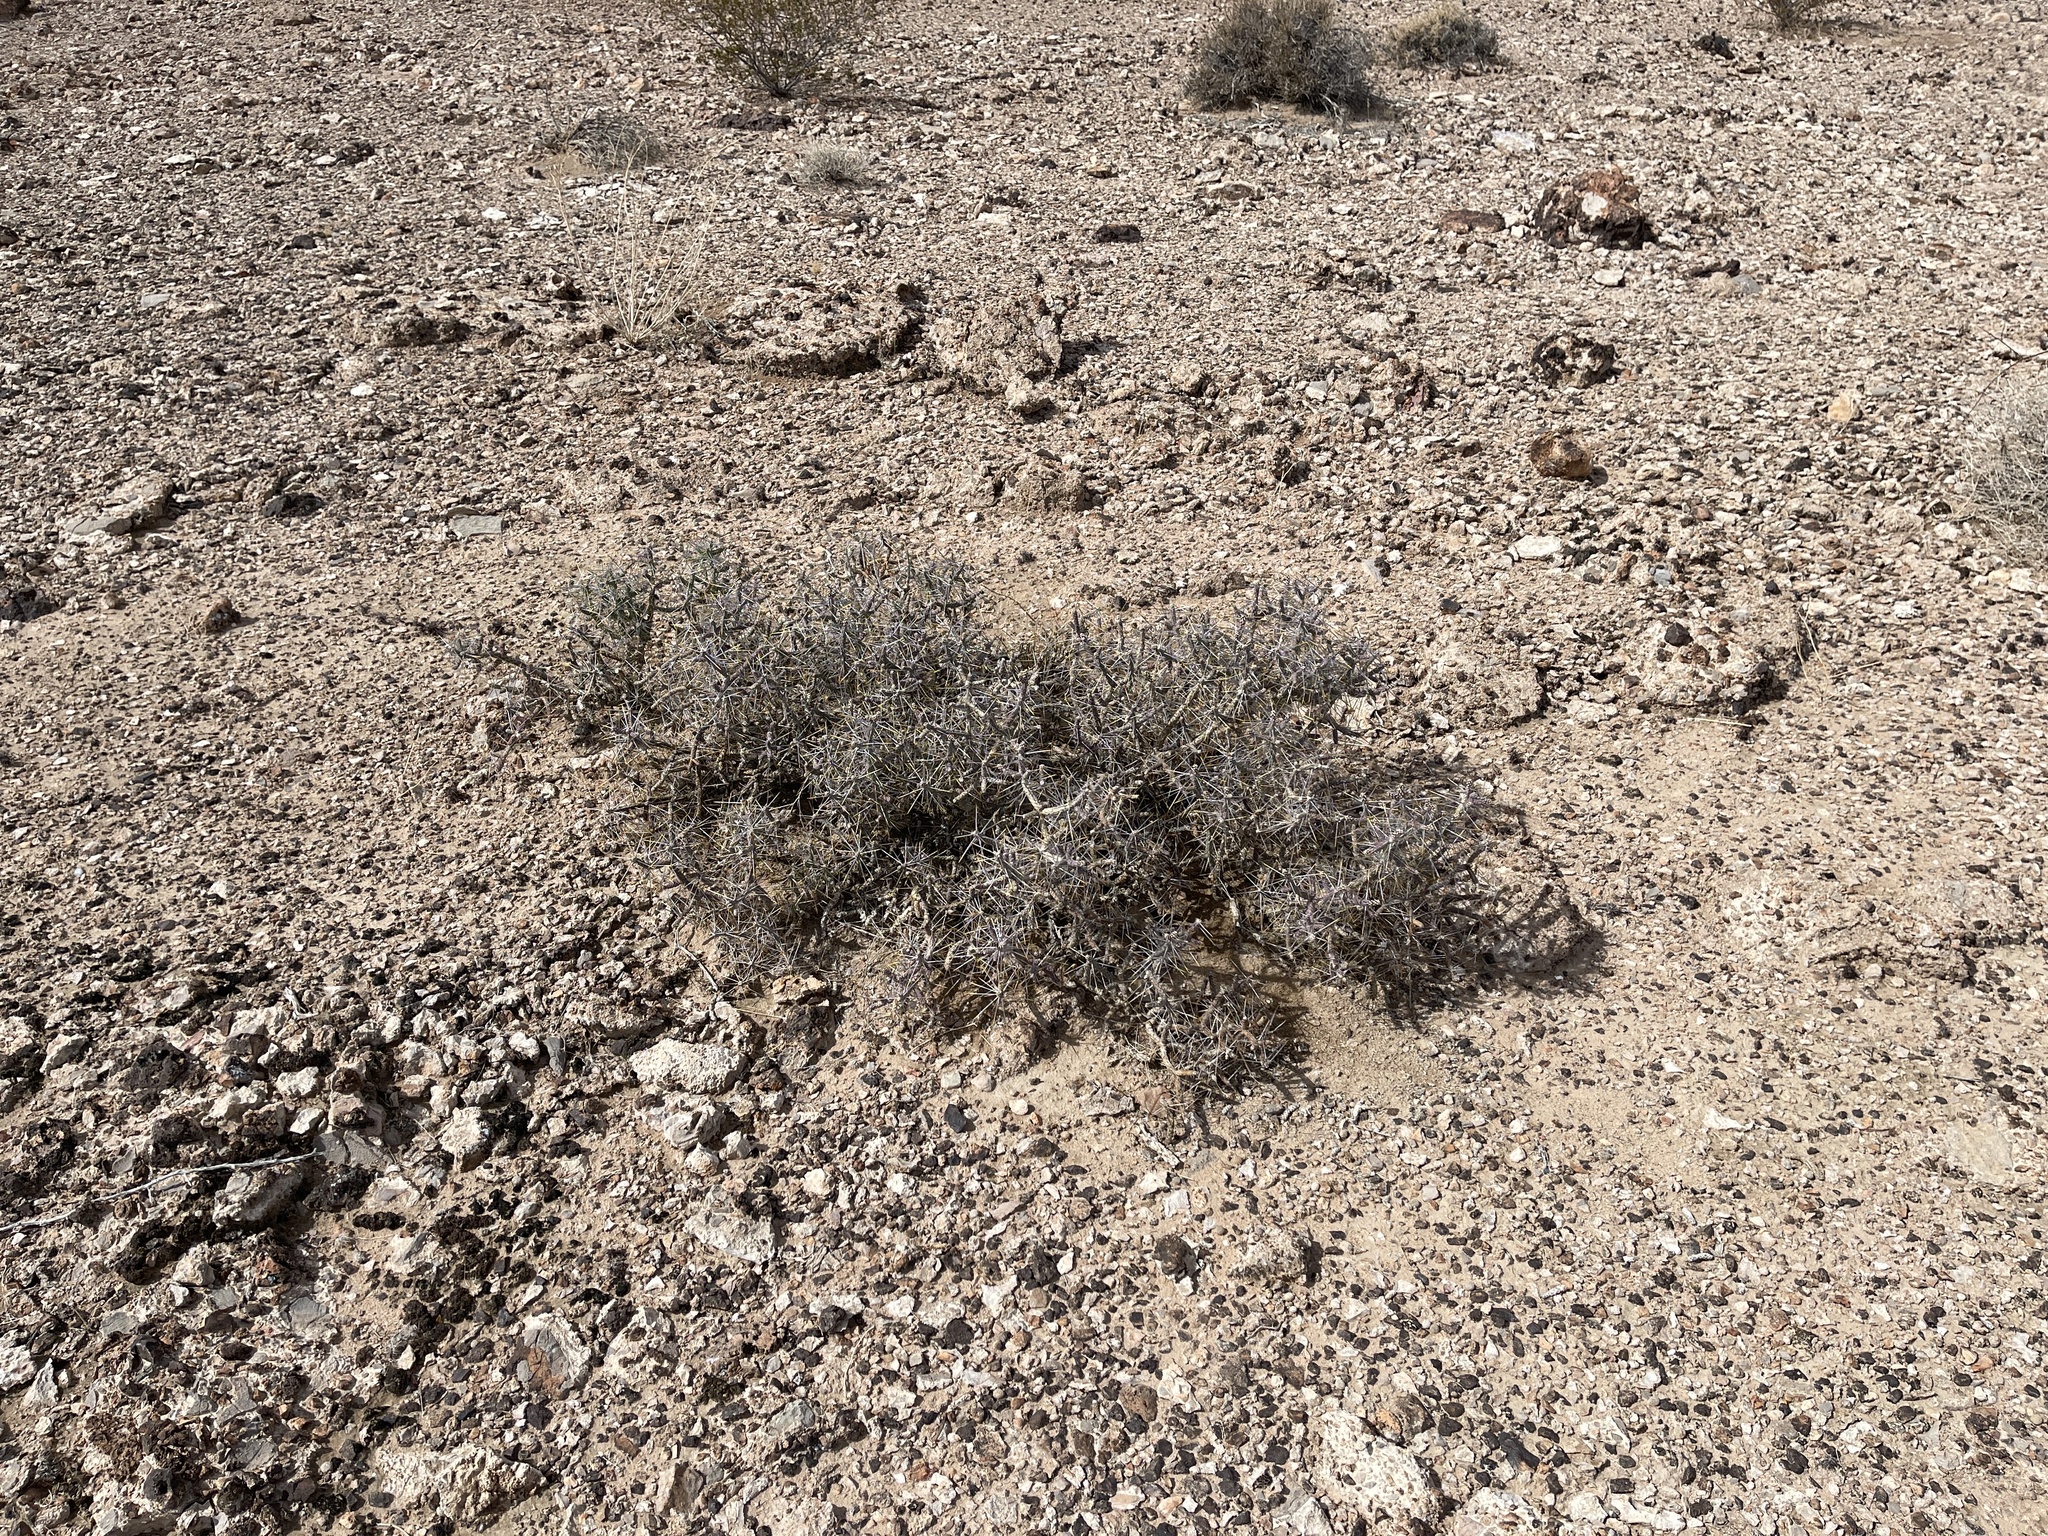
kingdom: Plantae
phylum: Tracheophyta
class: Magnoliopsida
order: Caryophyllales
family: Cactaceae
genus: Cylindropuntia
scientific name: Cylindropuntia ramosissima
